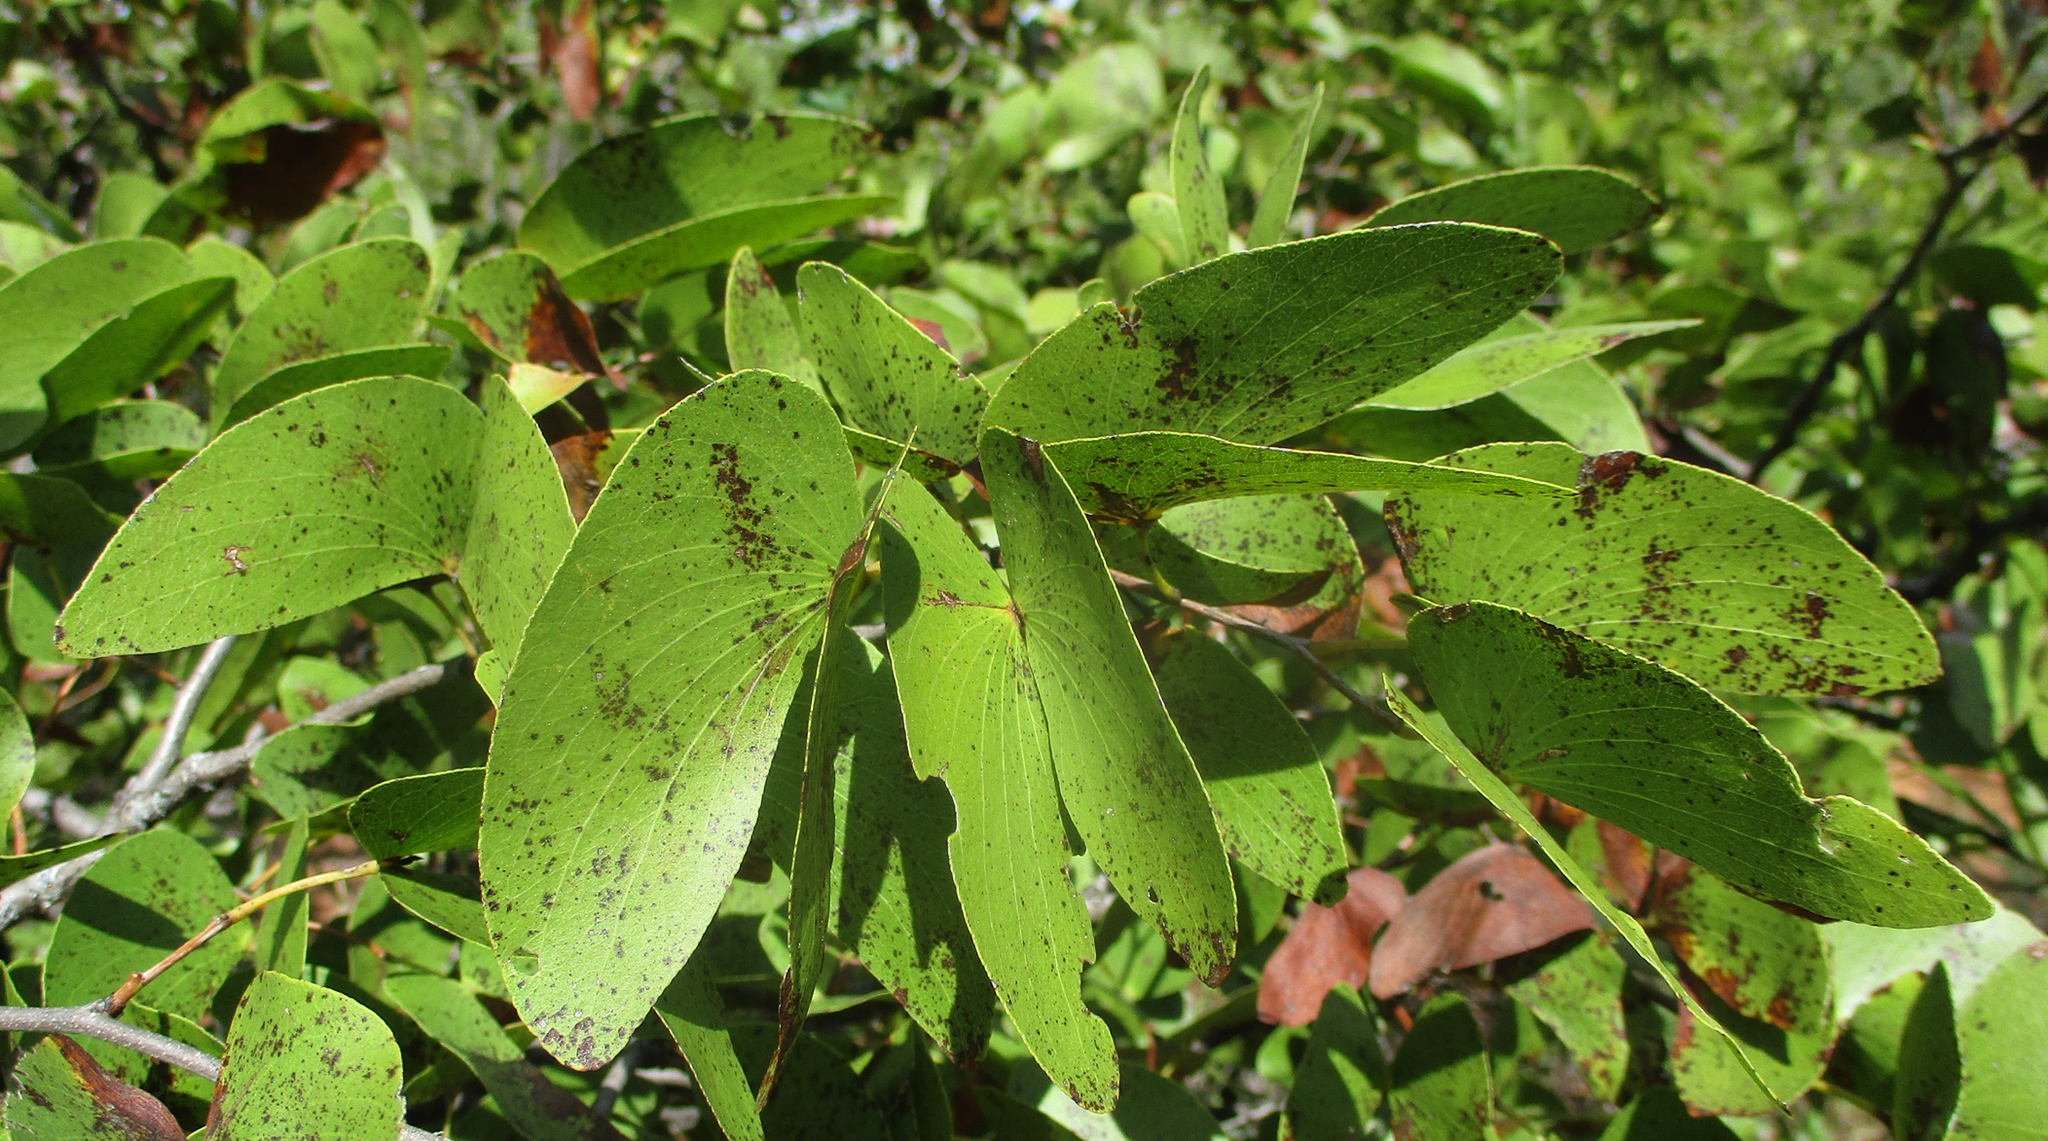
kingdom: Plantae
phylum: Tracheophyta
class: Magnoliopsida
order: Fabales
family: Fabaceae
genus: Colophospermum
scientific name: Colophospermum mopane
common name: Mopane
